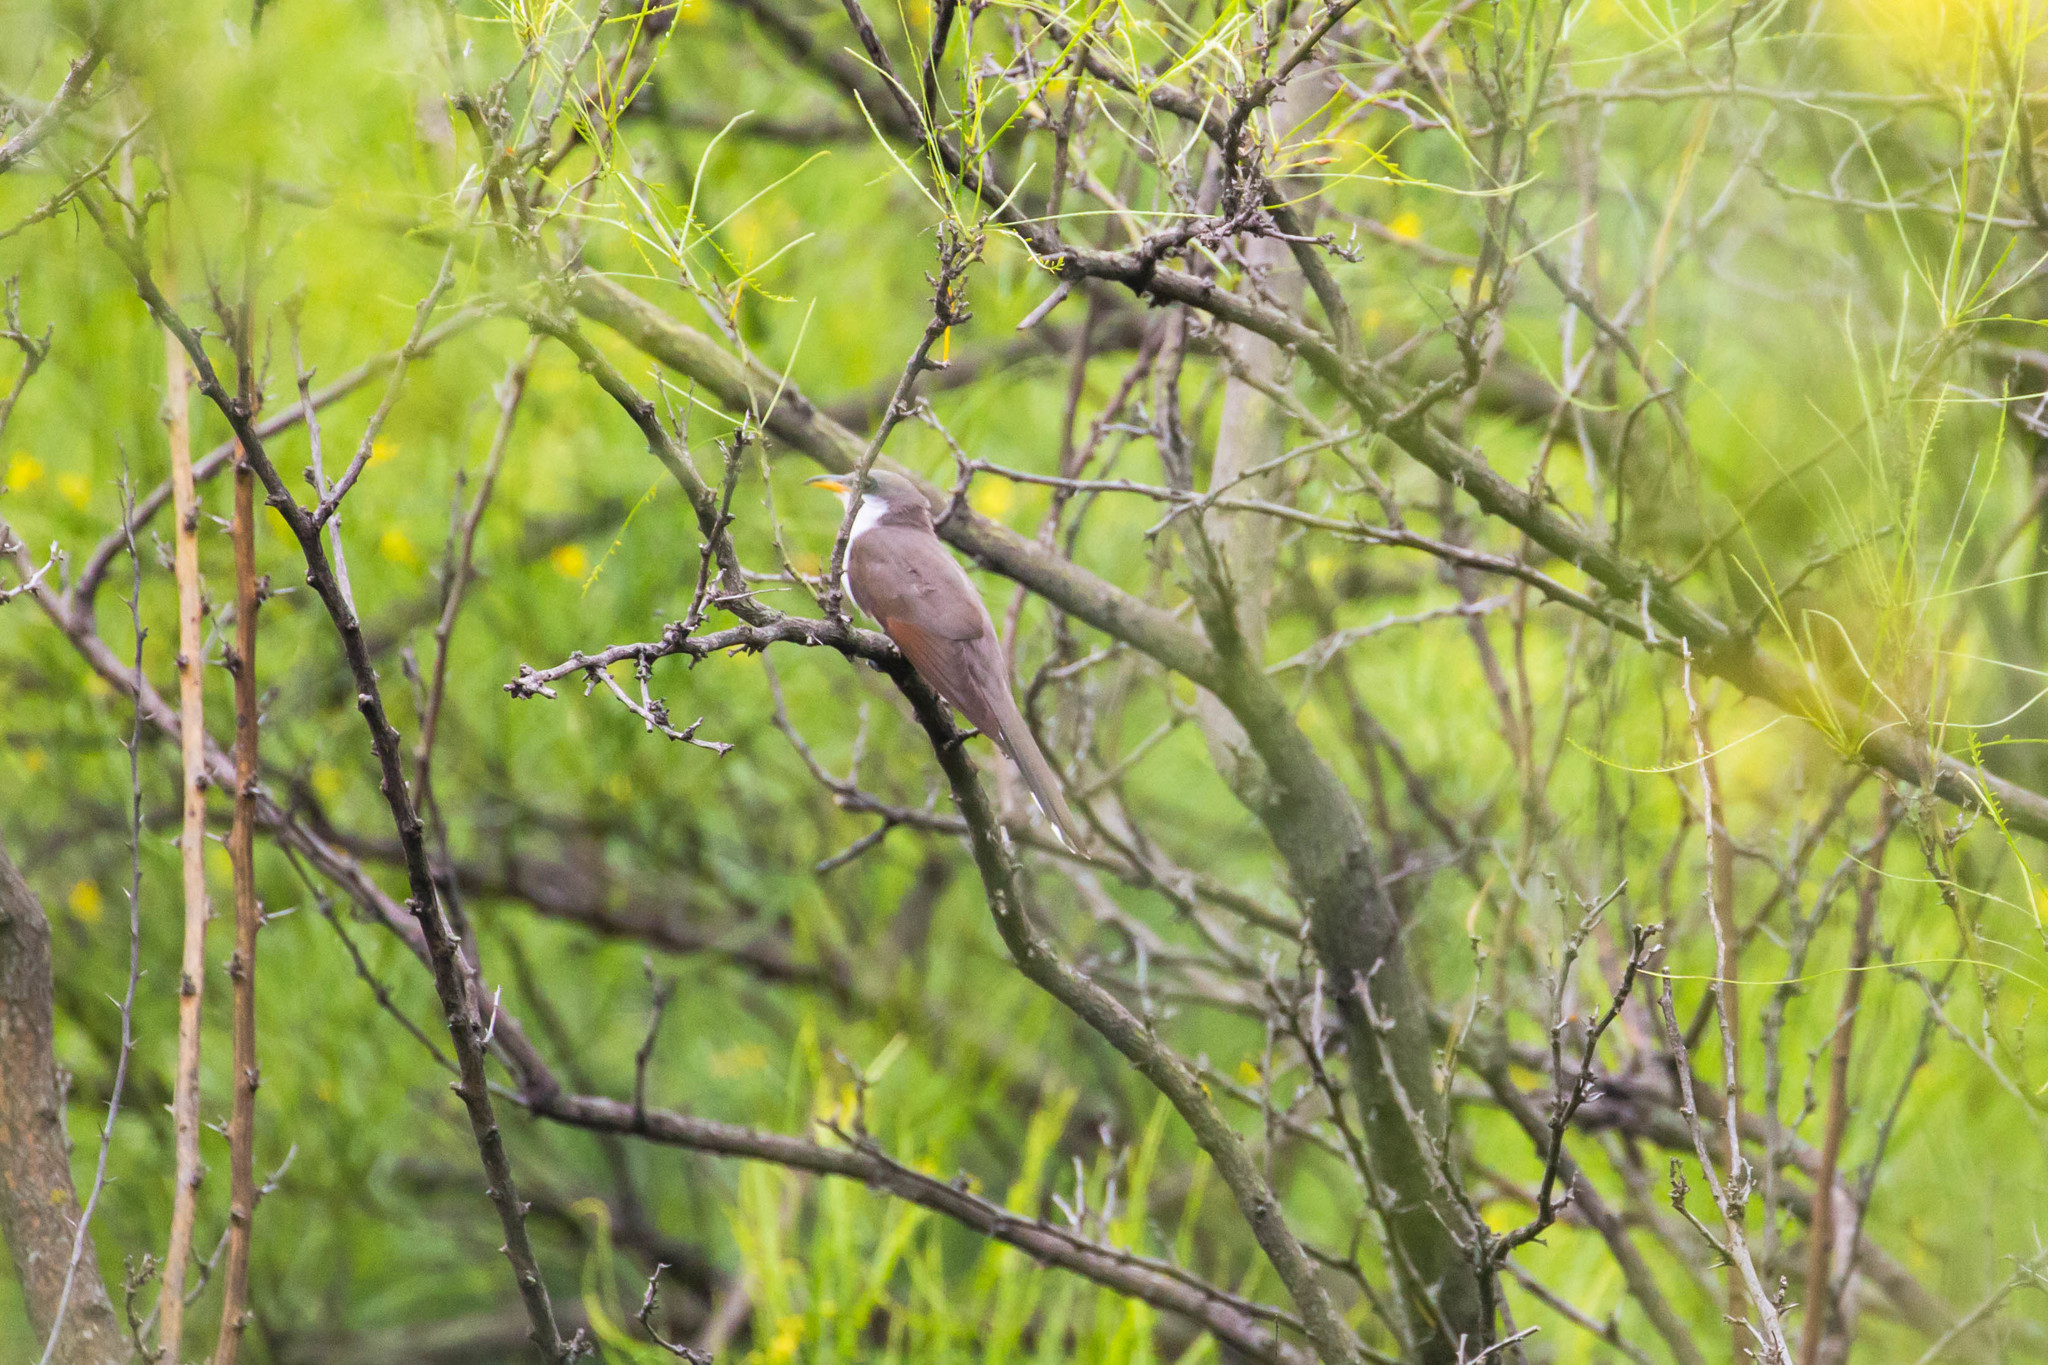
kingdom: Animalia
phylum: Chordata
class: Aves
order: Cuculiformes
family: Cuculidae
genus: Coccyzus
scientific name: Coccyzus americanus
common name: Yellow-billed cuckoo
